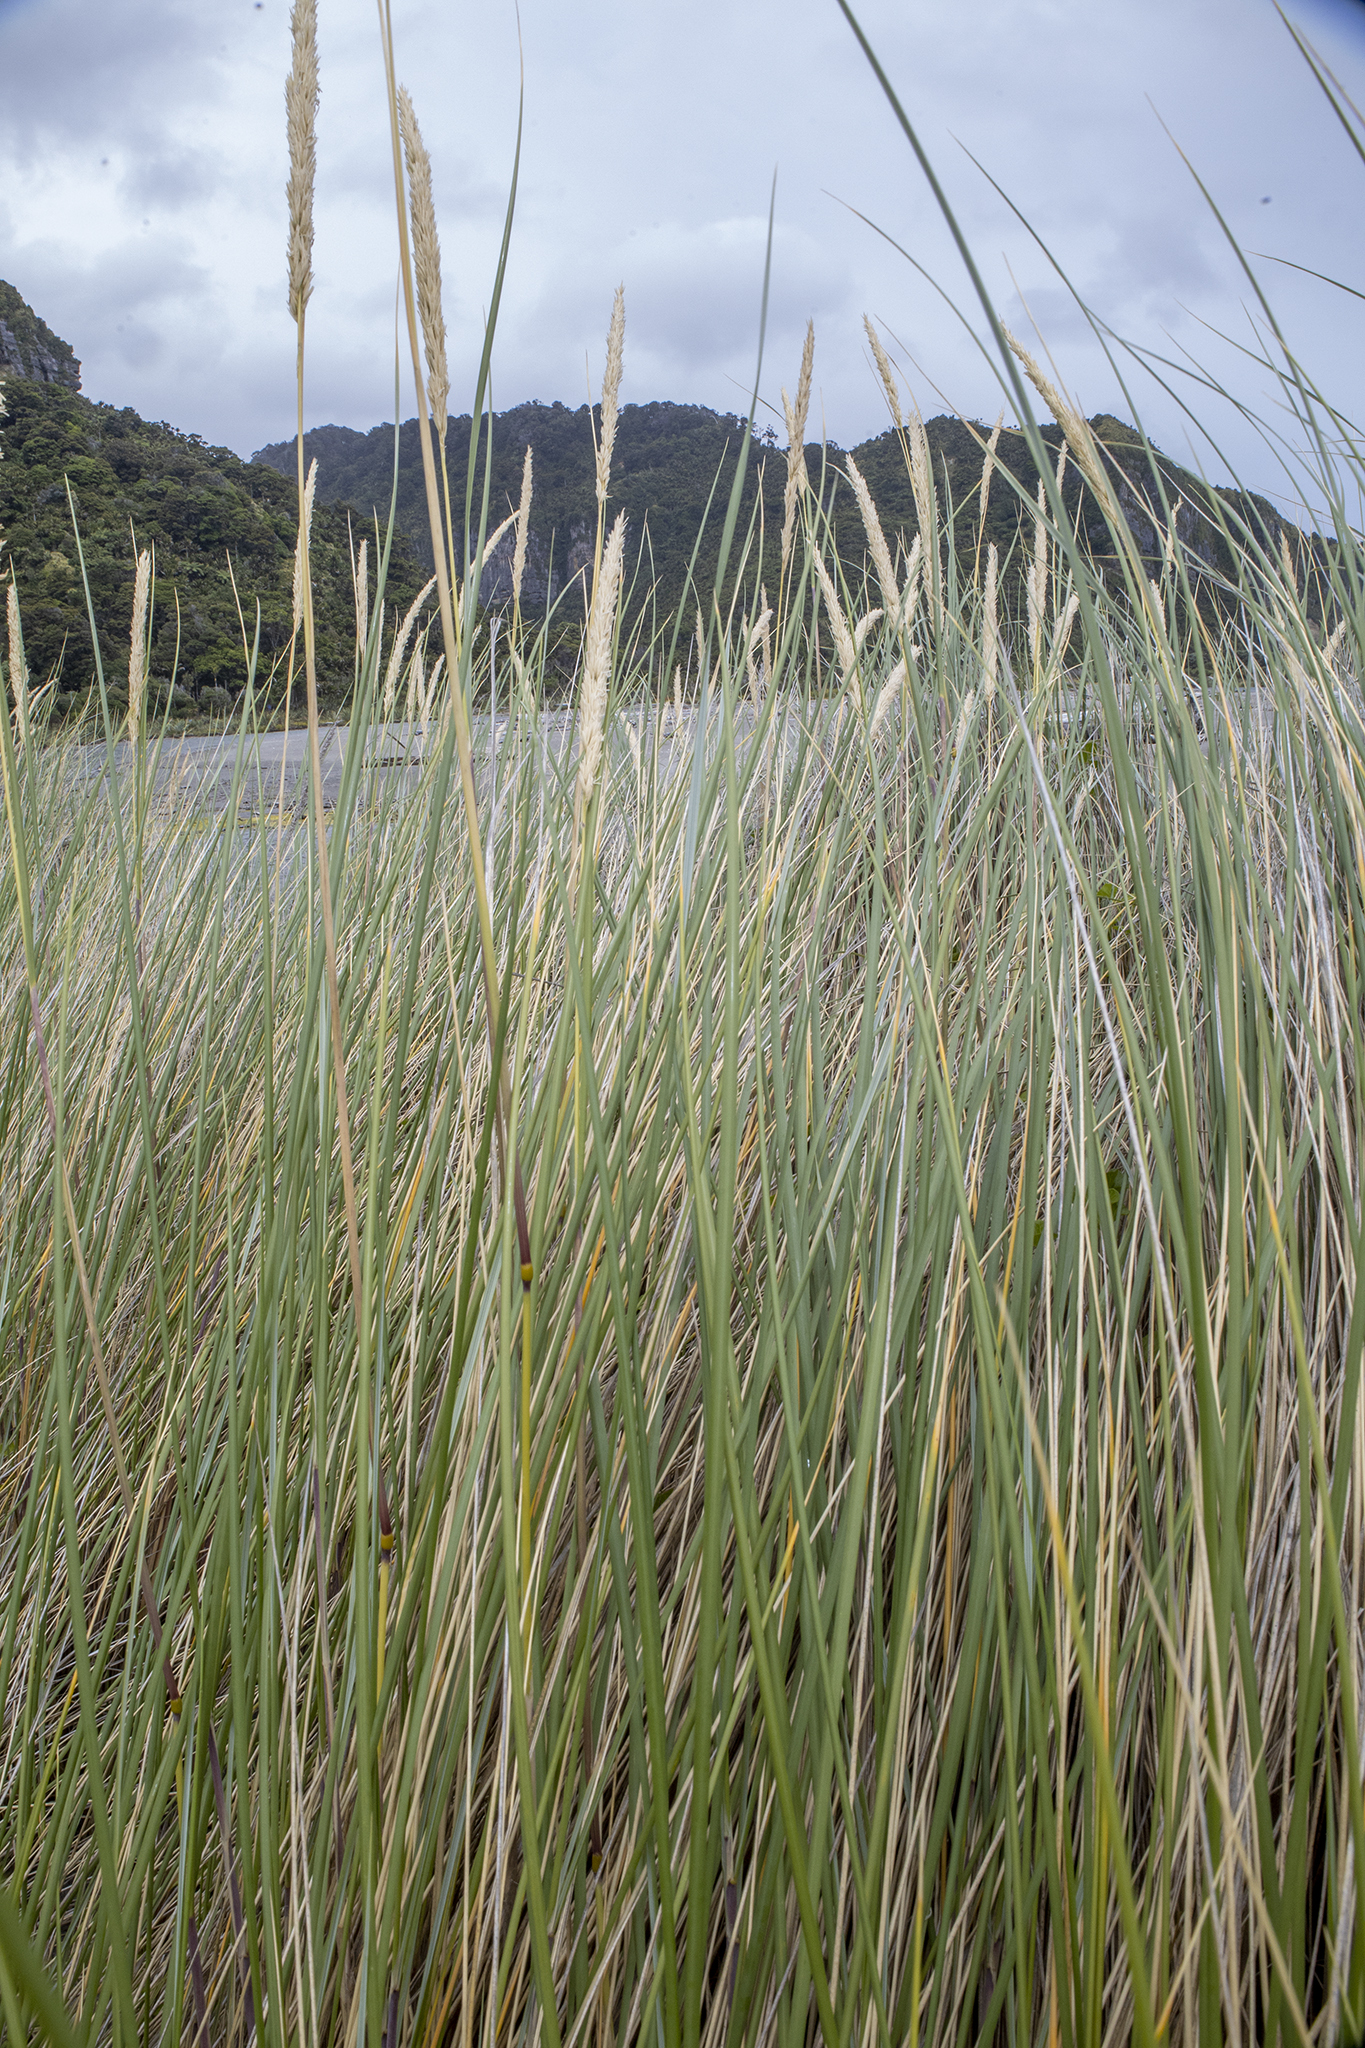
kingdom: Plantae
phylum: Tracheophyta
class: Liliopsida
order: Poales
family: Poaceae
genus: Calamagrostis
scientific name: Calamagrostis arenaria
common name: European beachgrass
